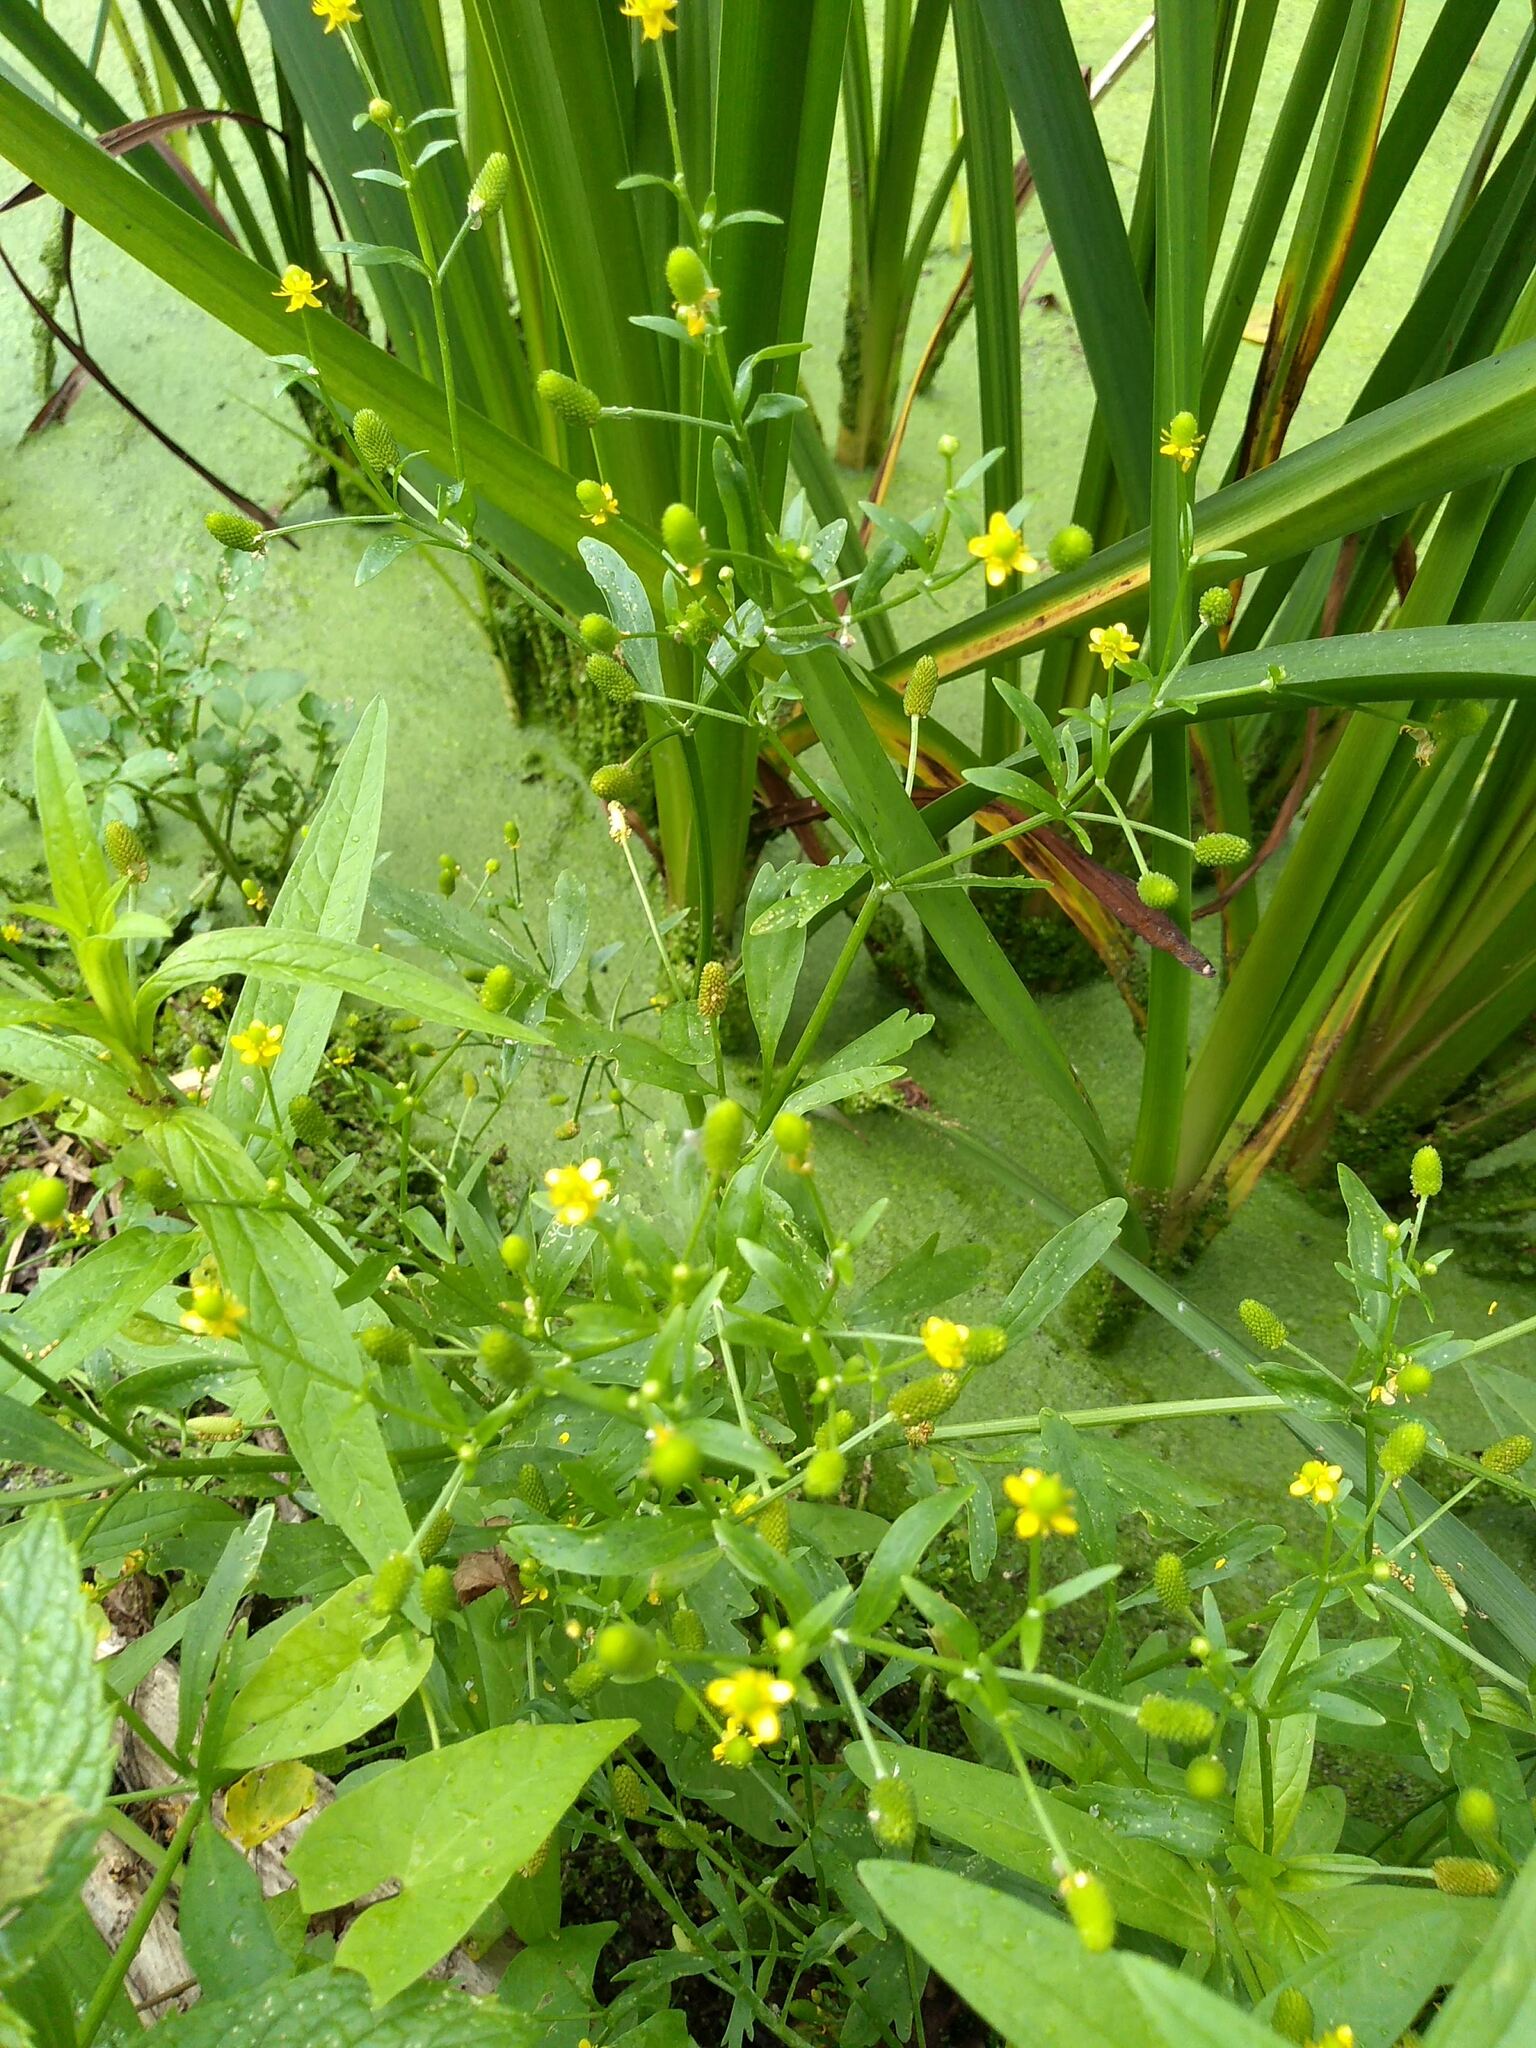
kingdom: Plantae
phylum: Tracheophyta
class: Magnoliopsida
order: Ranunculales
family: Ranunculaceae
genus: Ranunculus
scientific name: Ranunculus sceleratus
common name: Celery-leaved buttercup
